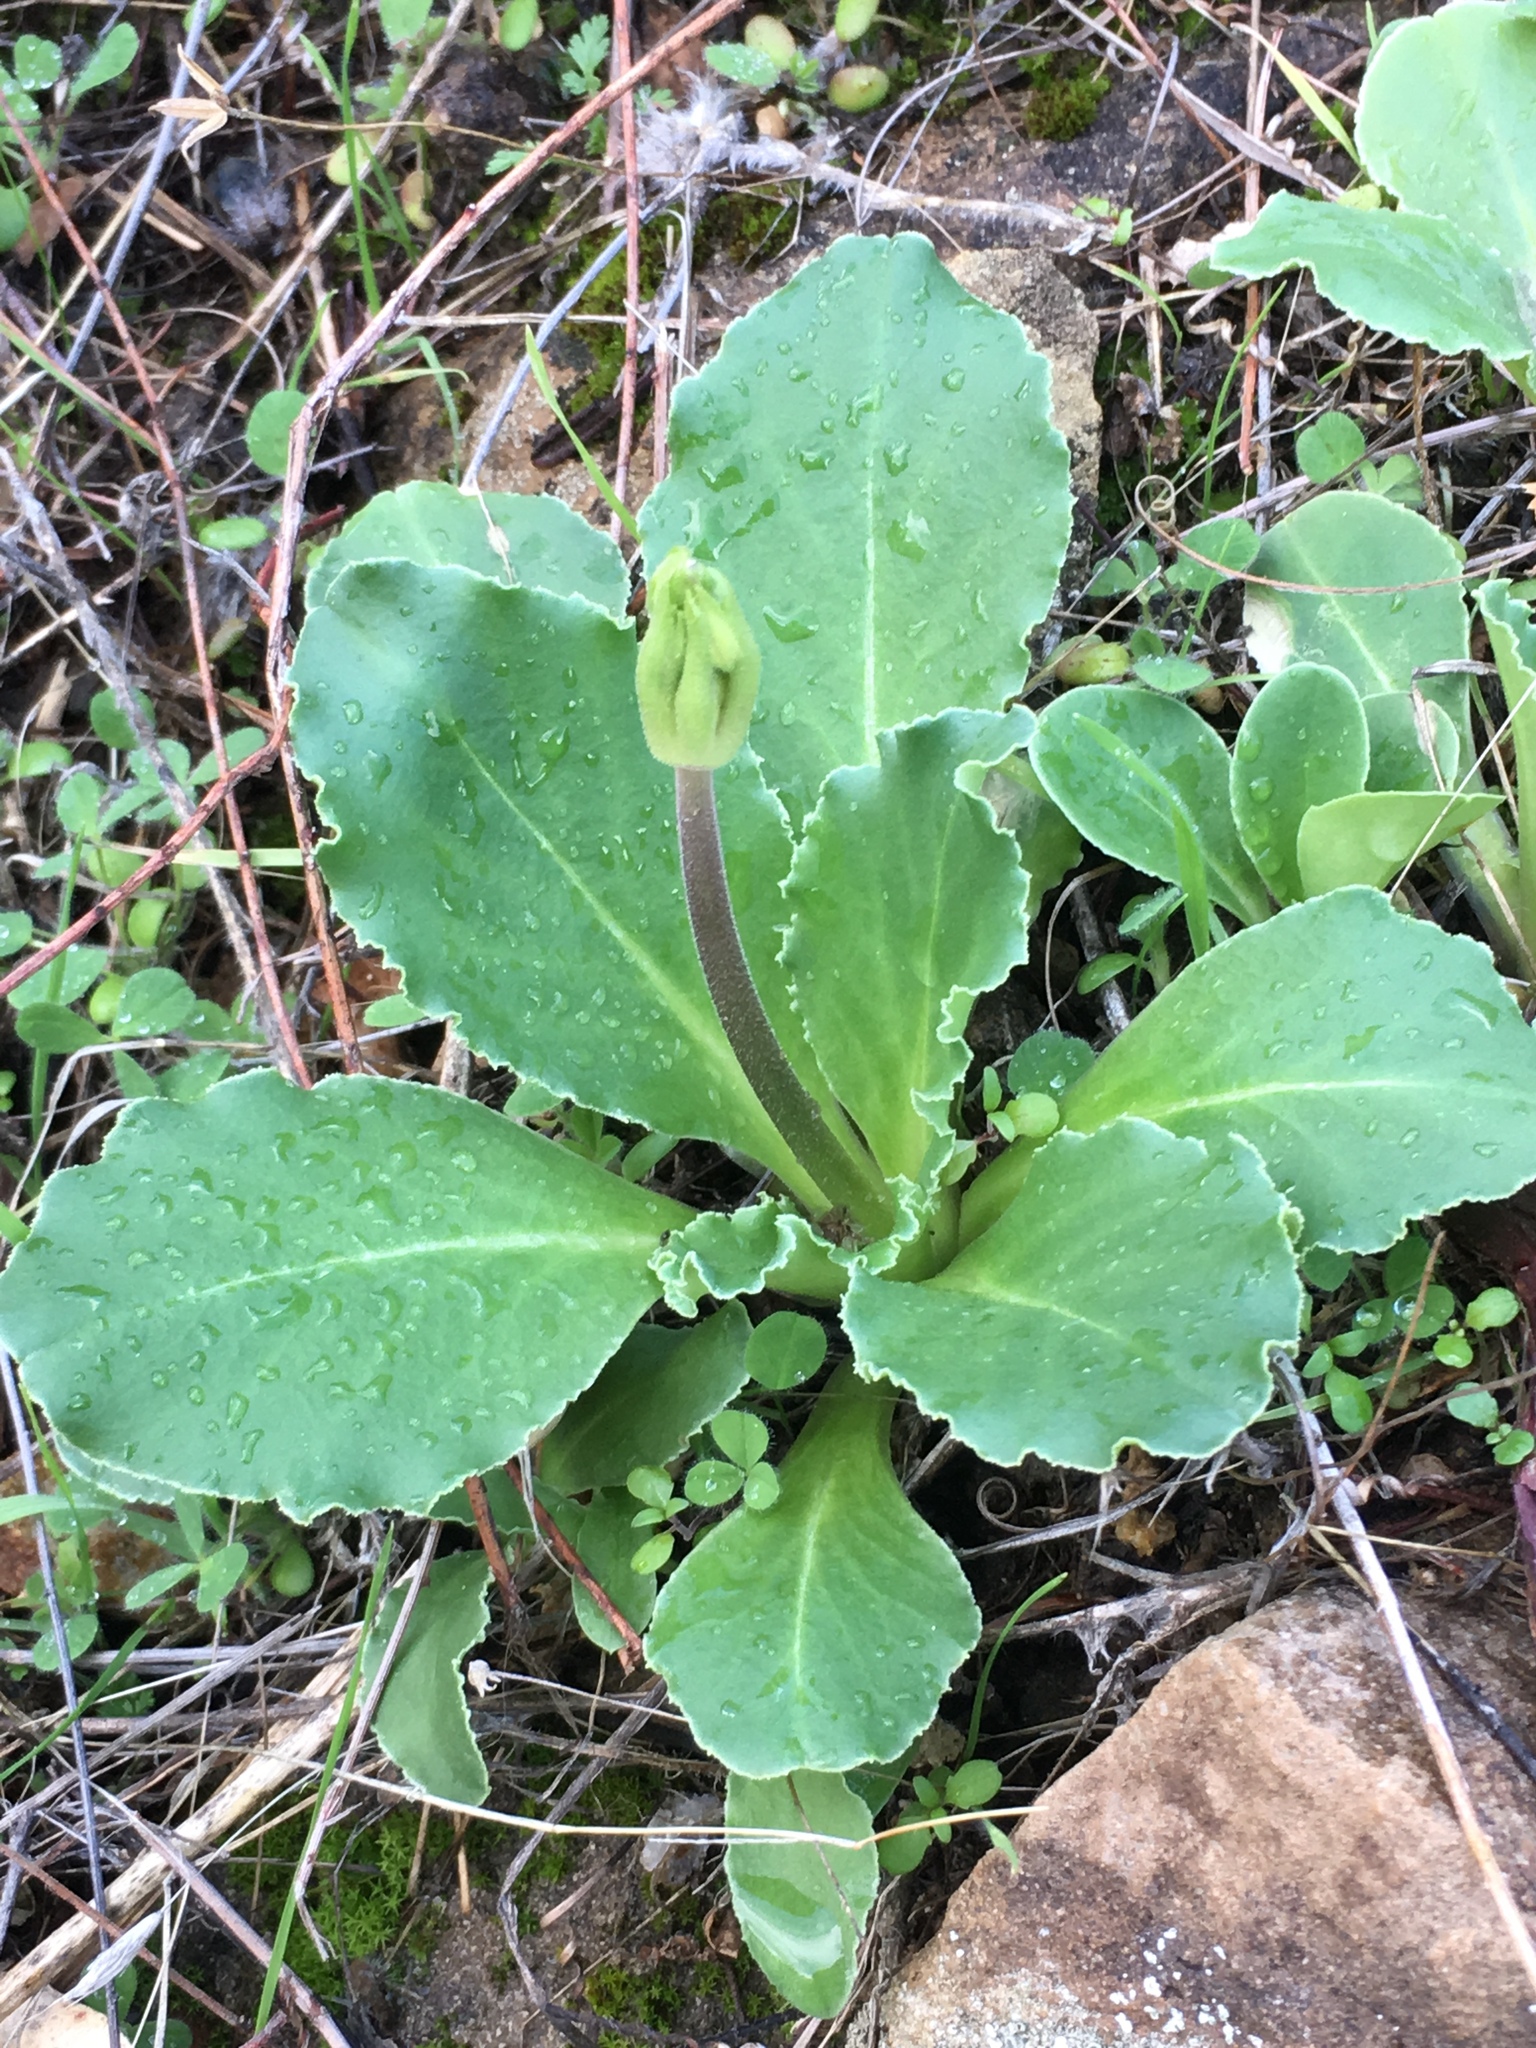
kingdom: Plantae
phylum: Tracheophyta
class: Magnoliopsida
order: Ericales
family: Primulaceae
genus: Dodecatheon
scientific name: Dodecatheon clevelandii
